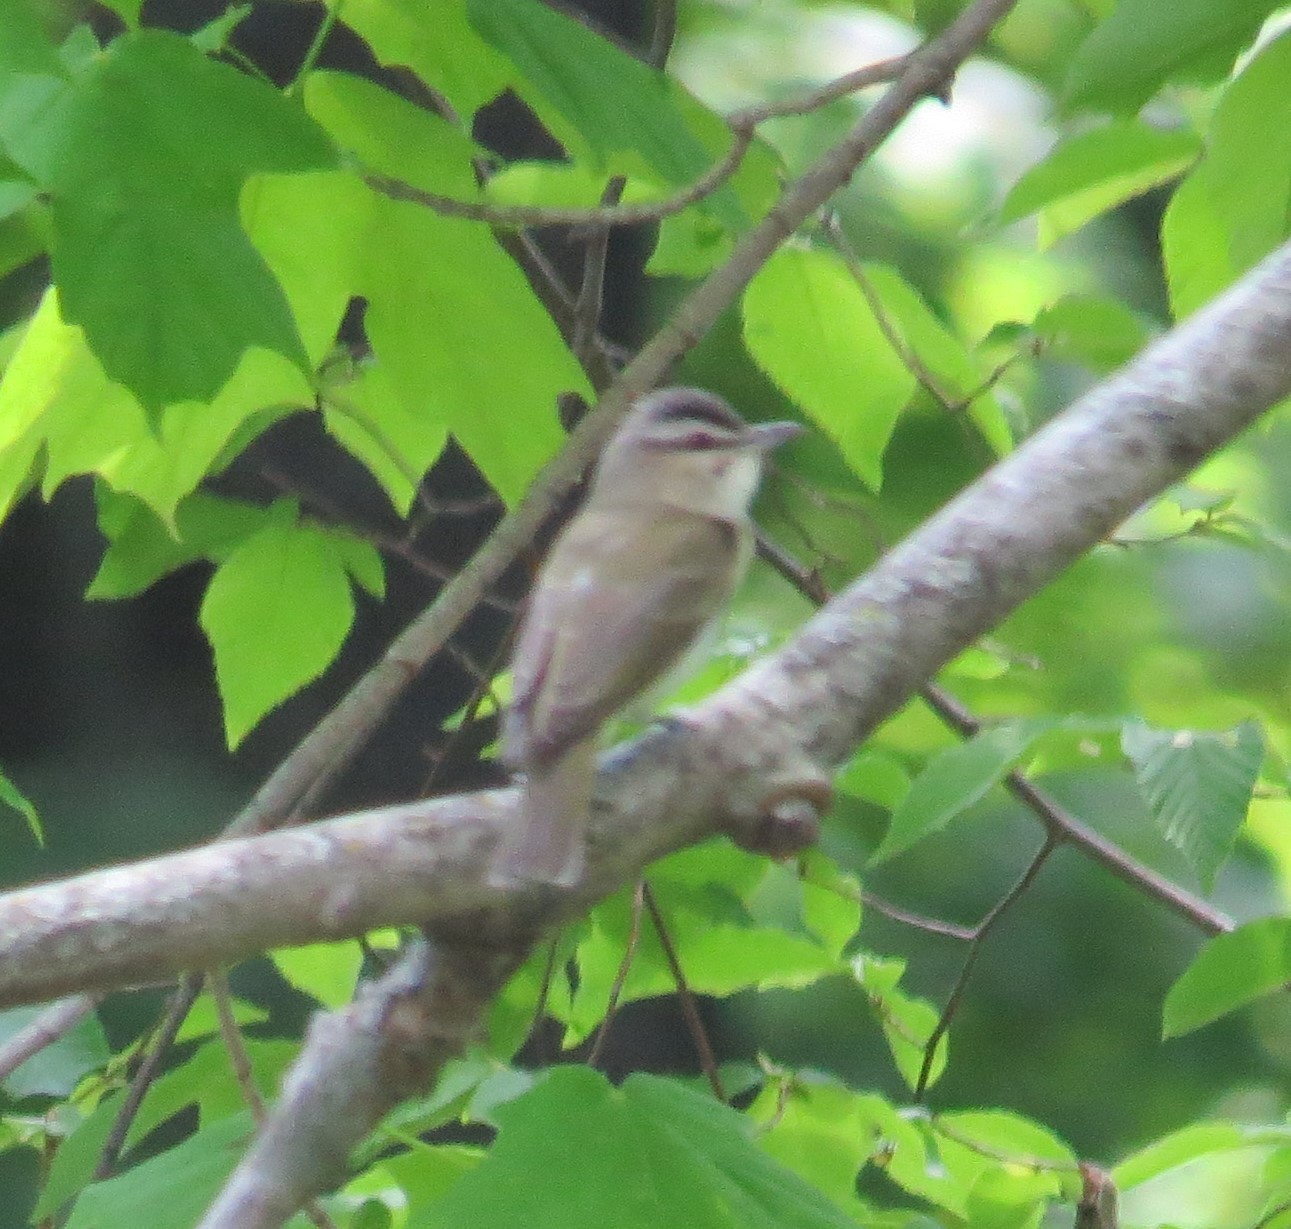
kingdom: Animalia
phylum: Chordata
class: Aves
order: Passeriformes
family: Vireonidae
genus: Vireo
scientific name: Vireo olivaceus
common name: Red-eyed vireo
